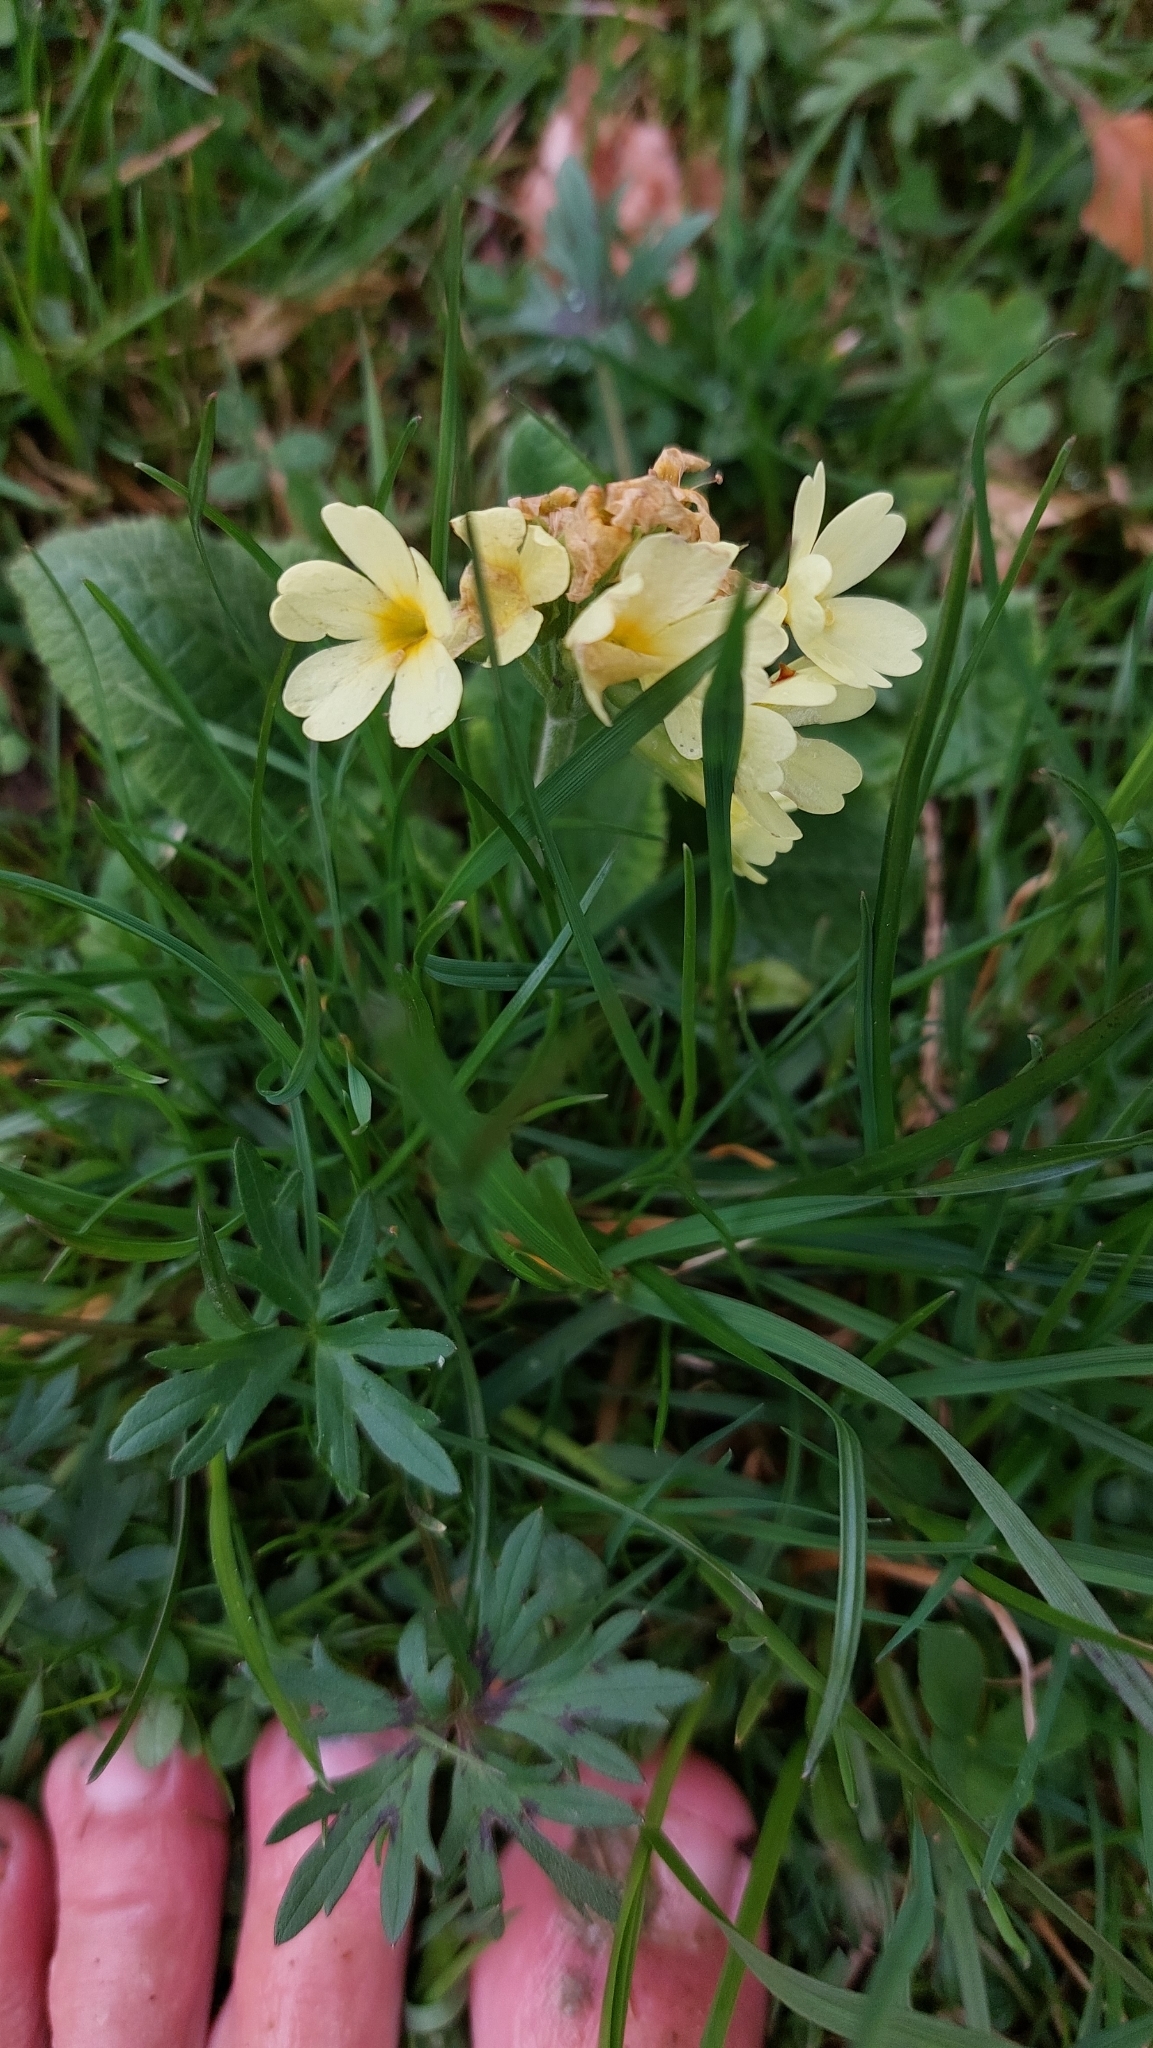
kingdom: Plantae
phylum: Tracheophyta
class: Magnoliopsida
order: Ericales
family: Primulaceae
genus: Primula
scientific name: Primula elatior
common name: Oxlip
